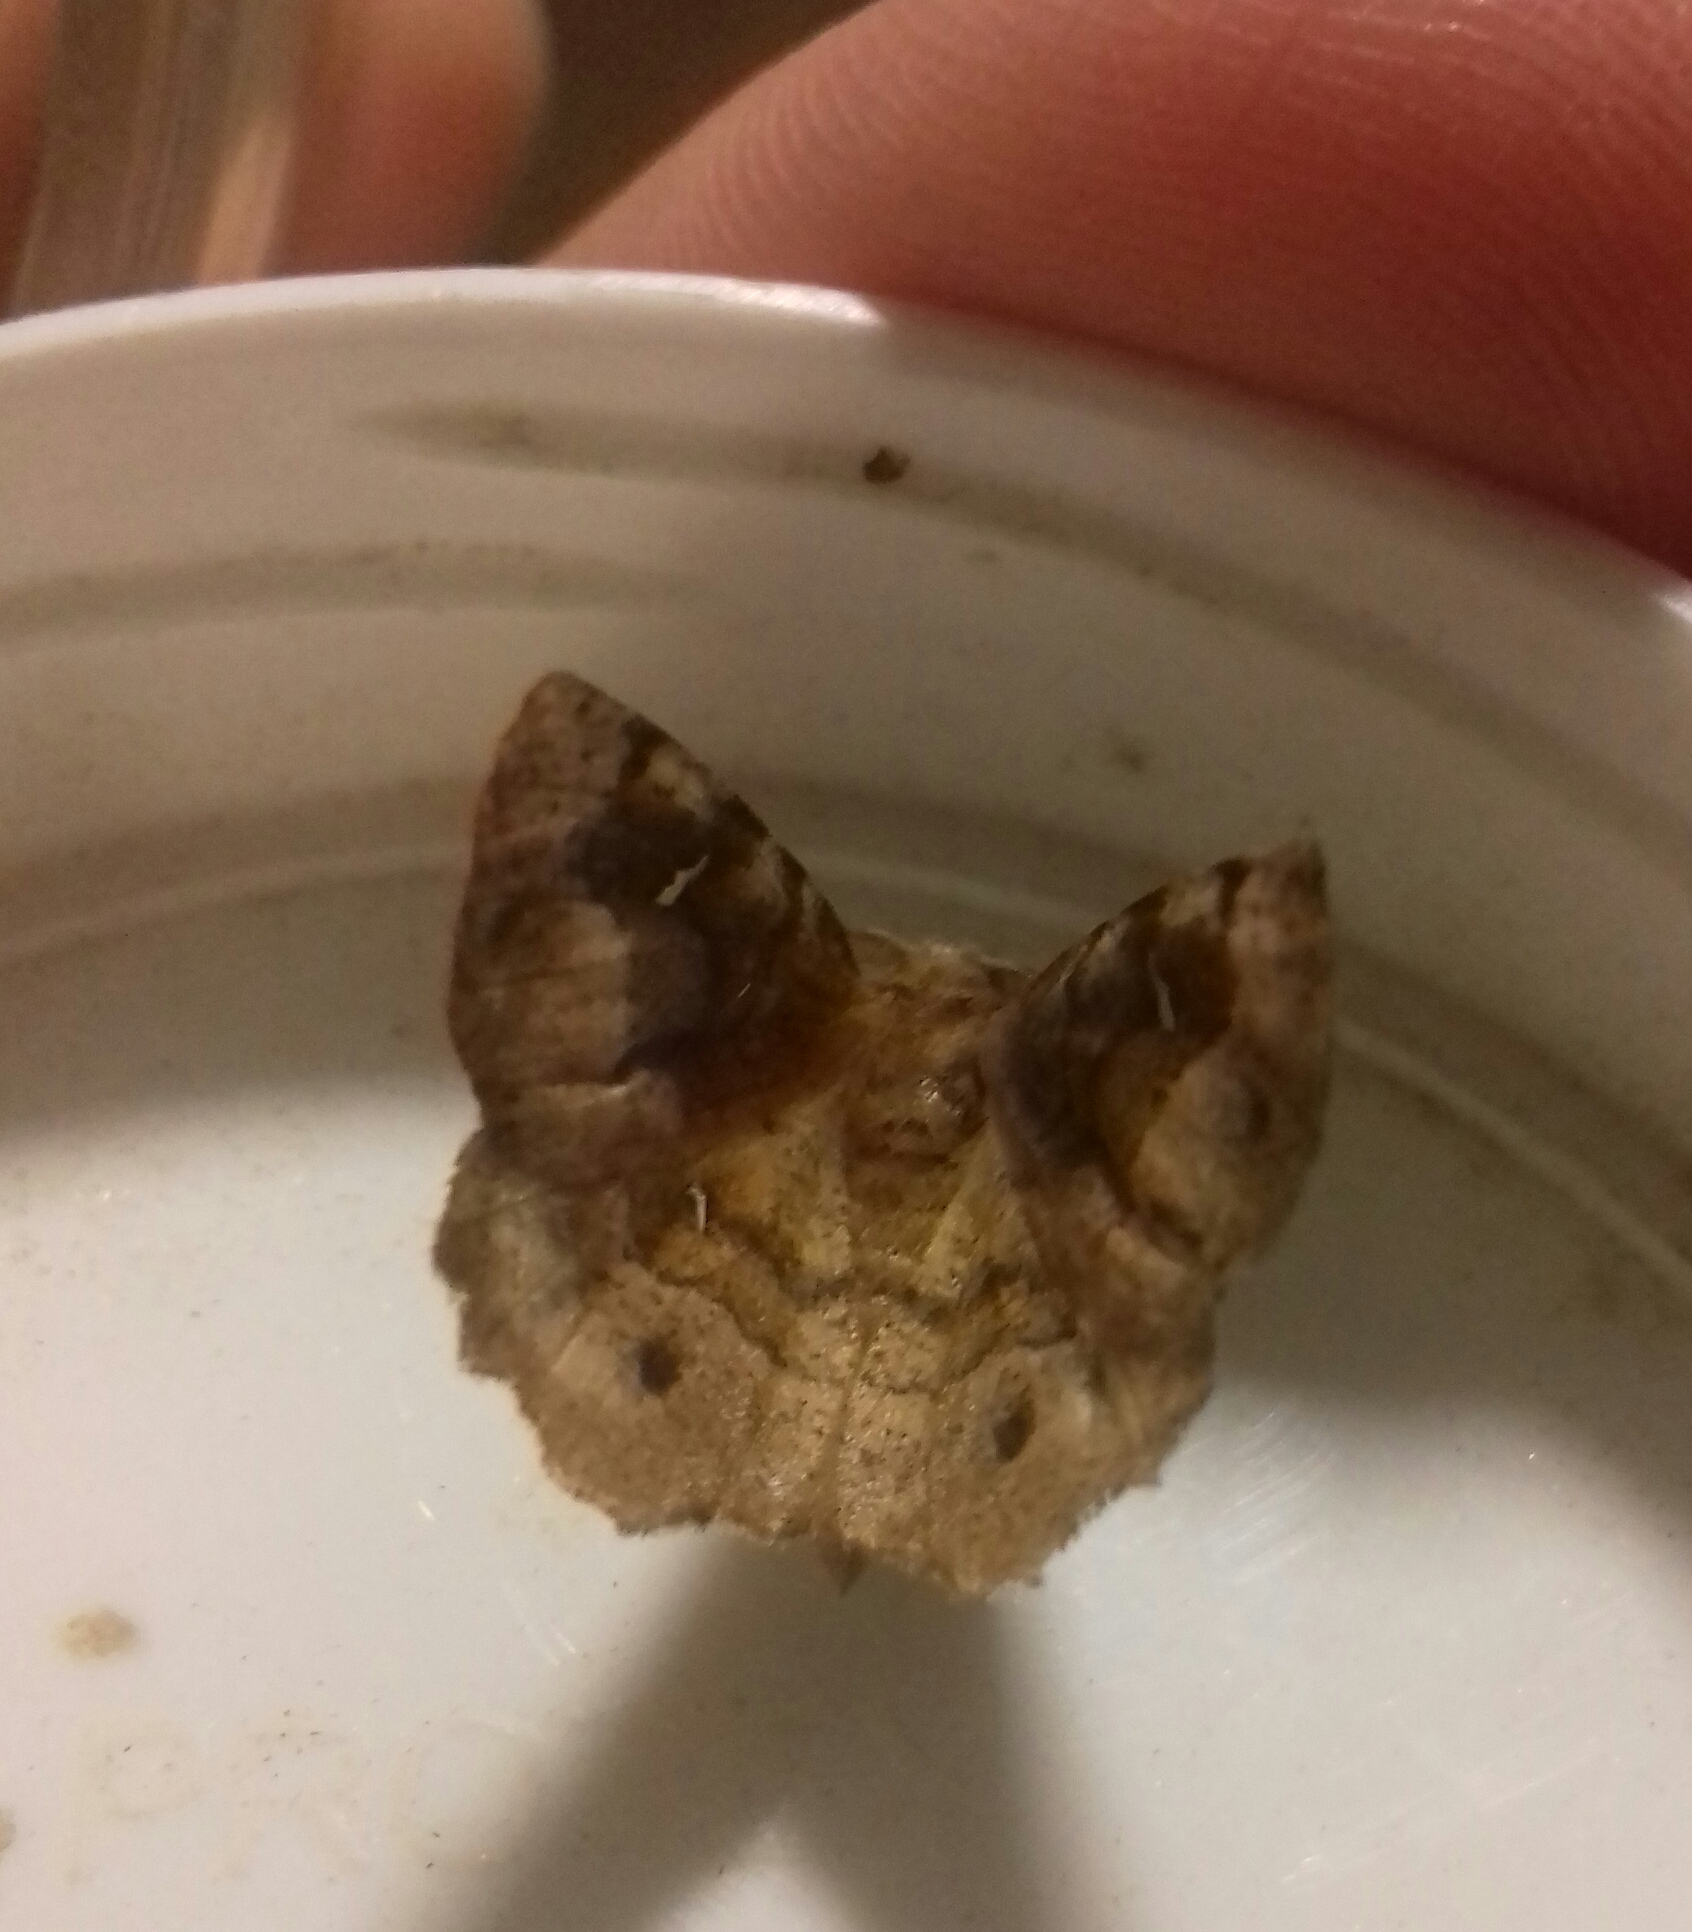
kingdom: Animalia
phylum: Arthropoda
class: Insecta
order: Lepidoptera
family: Geometridae
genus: Selenia
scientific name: Selenia tetralunaria
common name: Purple thorn
